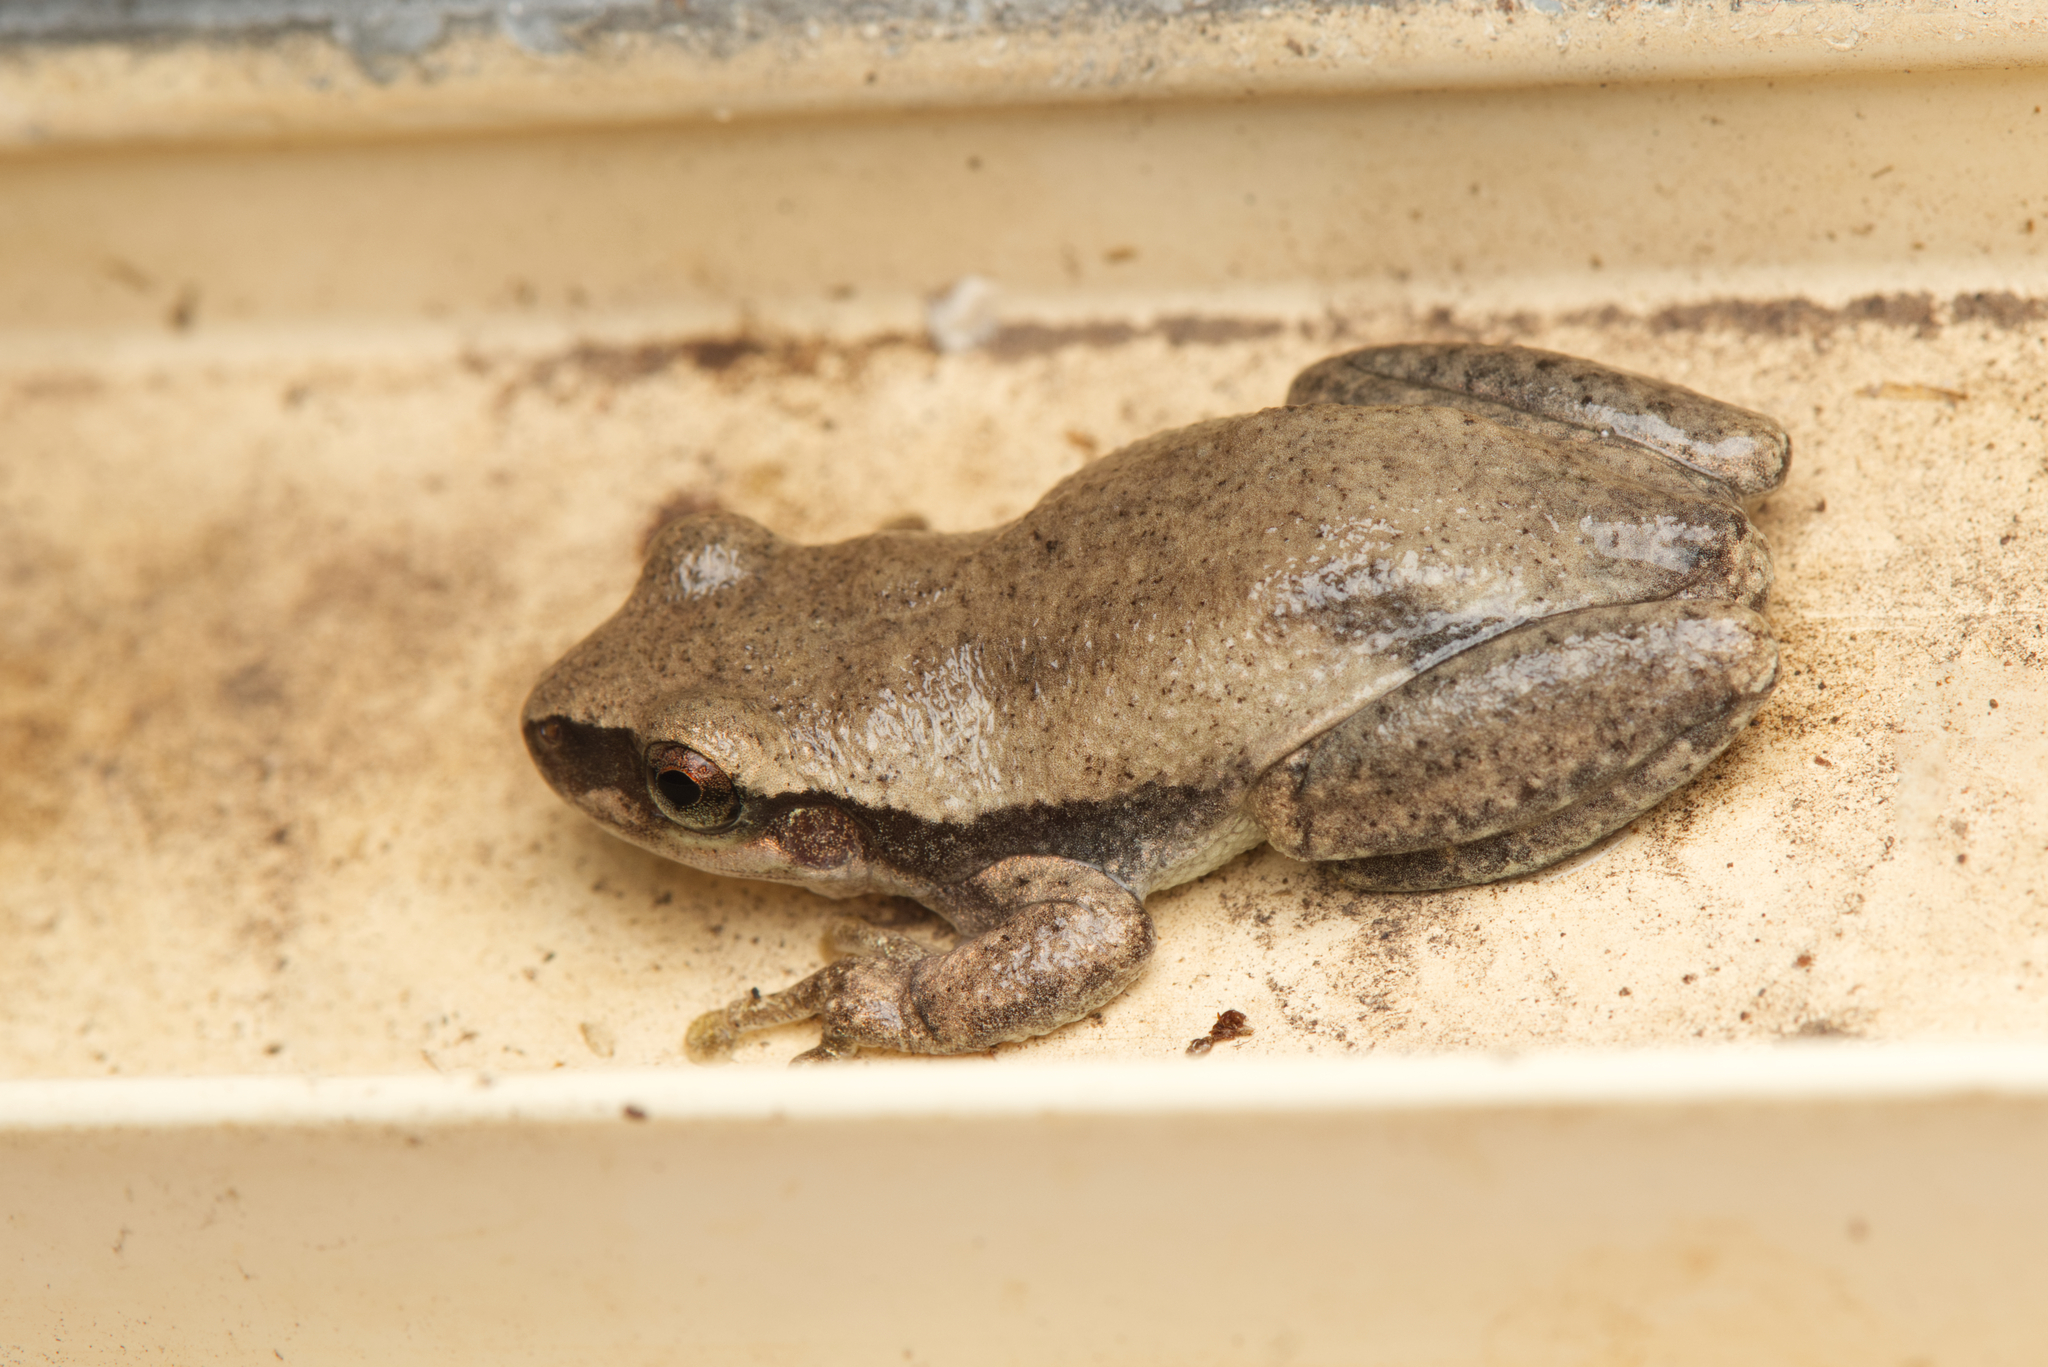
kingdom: Animalia
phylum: Chordata
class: Amphibia
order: Anura
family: Pelodryadidae
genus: Litoria
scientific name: Litoria rubella
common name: Desert tree frog
